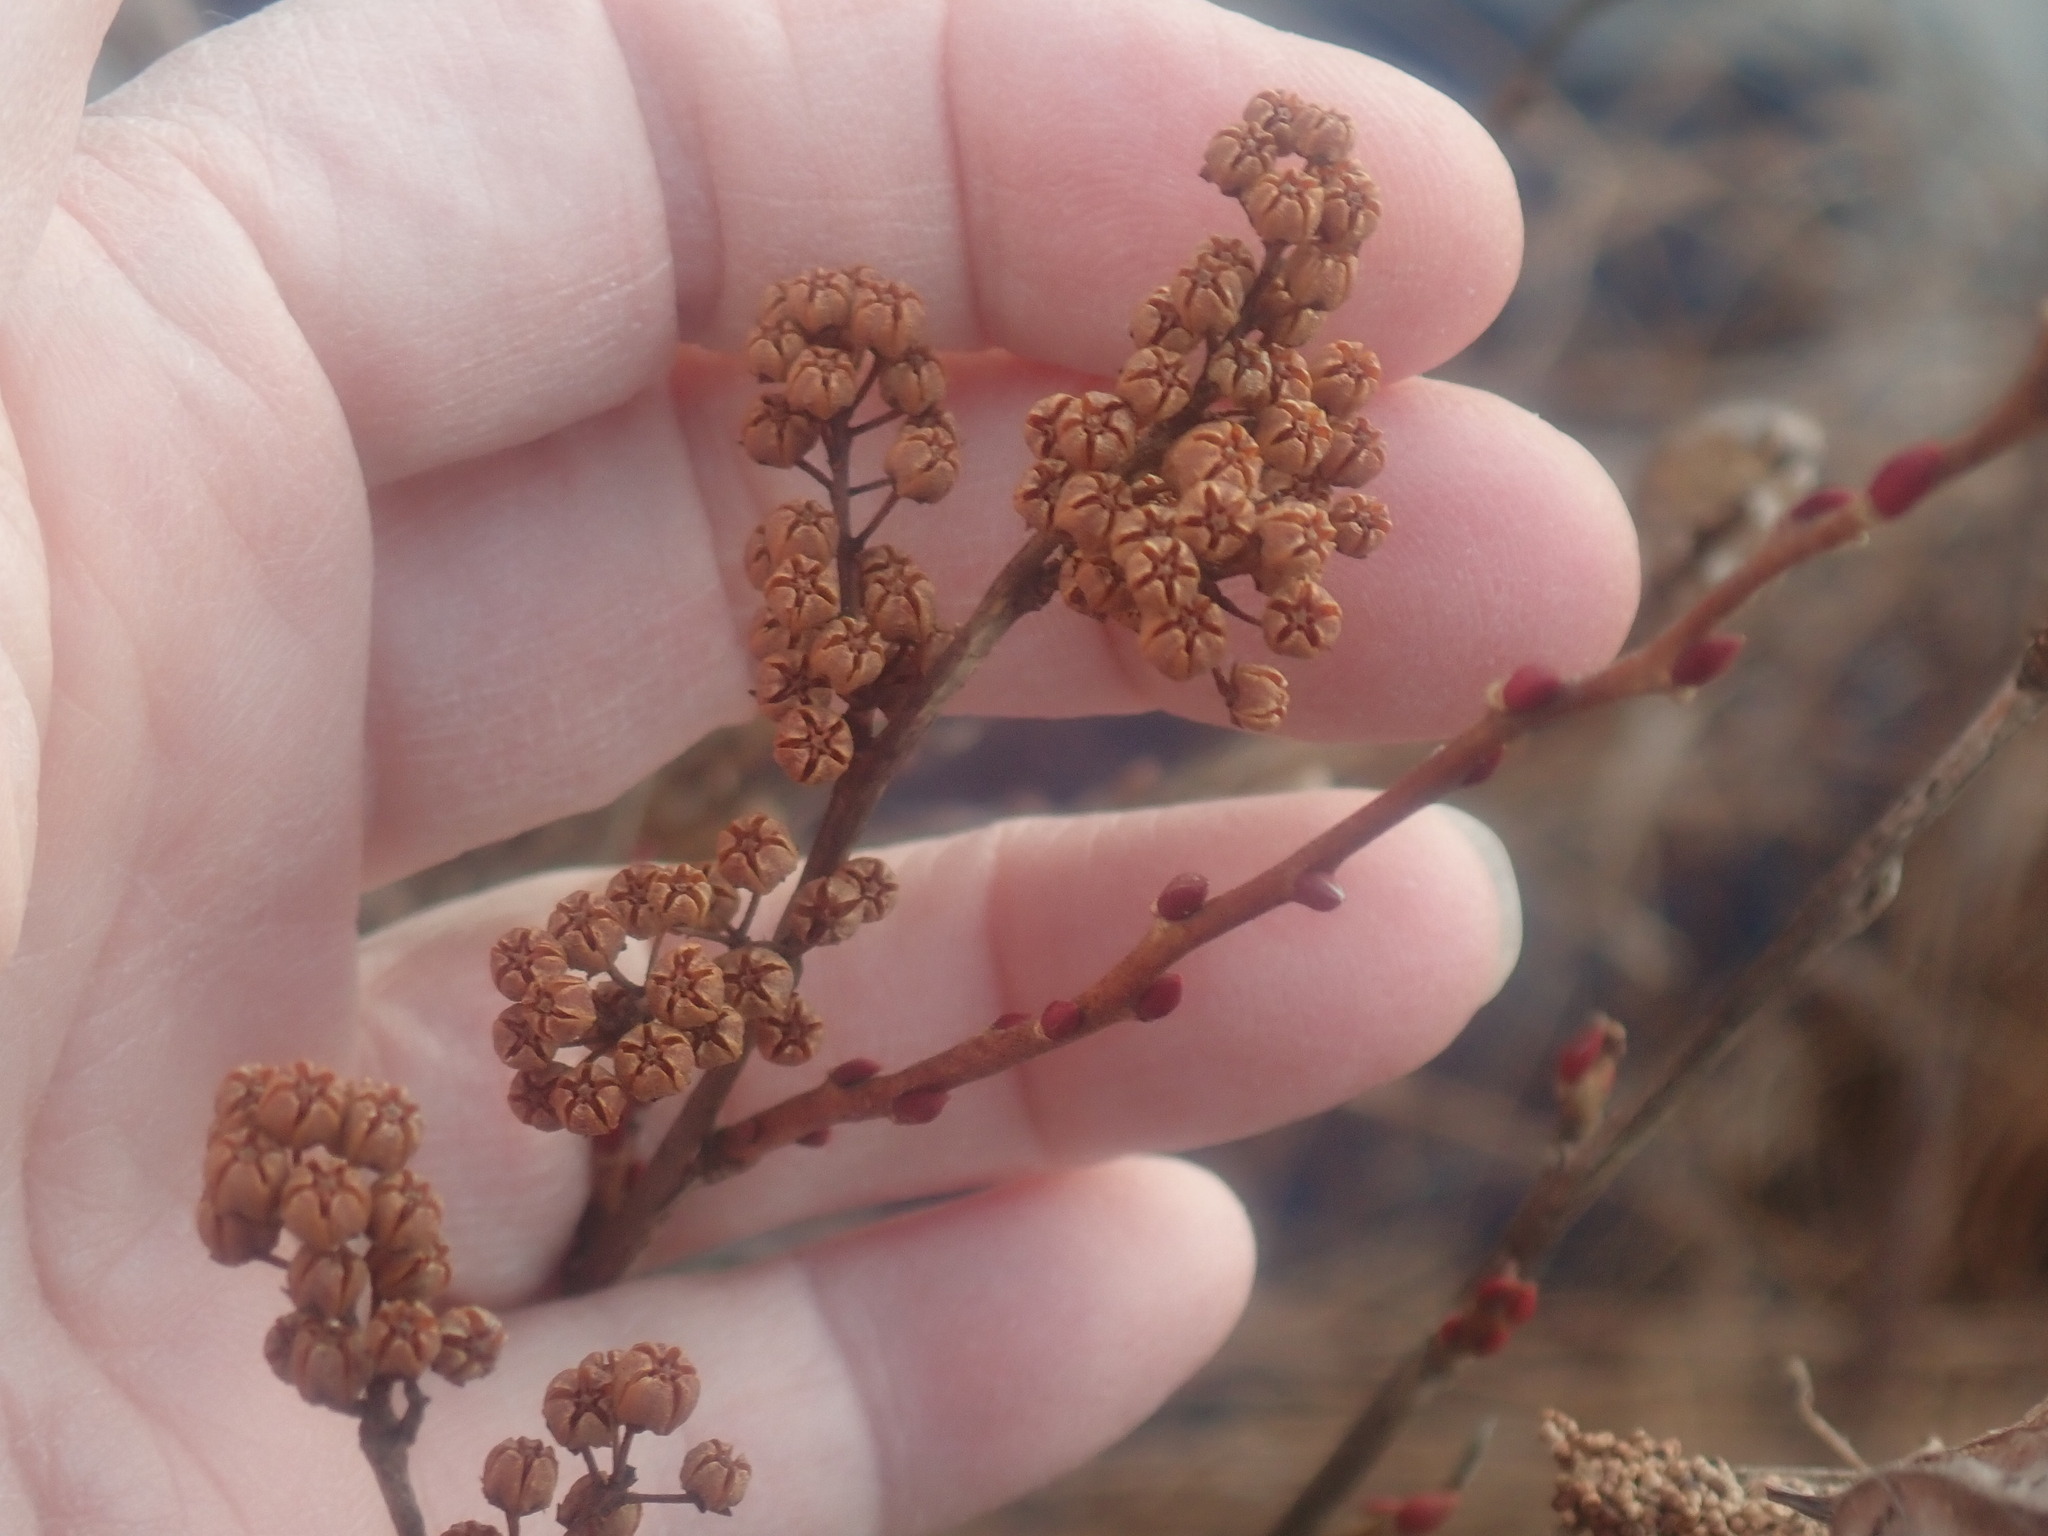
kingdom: Plantae
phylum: Tracheophyta
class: Magnoliopsida
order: Ericales
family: Ericaceae
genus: Lyonia
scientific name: Lyonia ligustrina
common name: Maleberry
